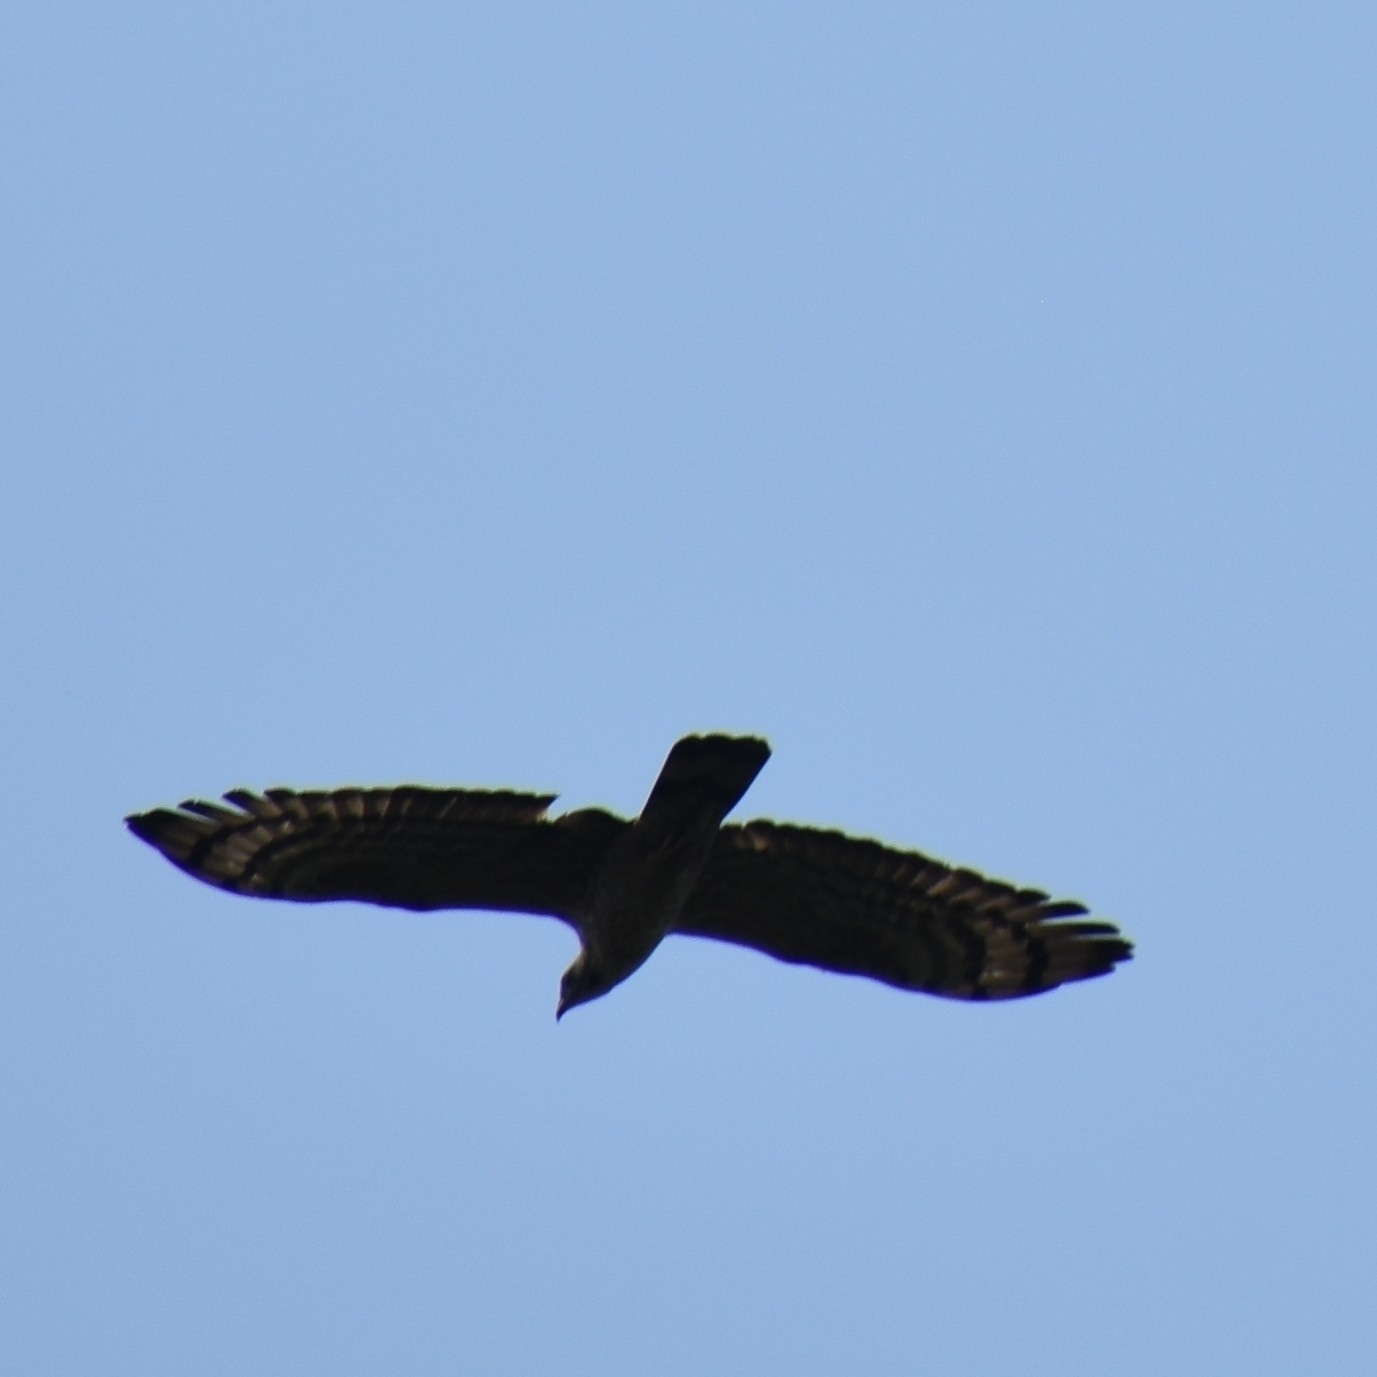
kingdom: Animalia
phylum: Chordata
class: Aves
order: Accipitriformes
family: Accipitridae
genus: Pernis
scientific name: Pernis ptilorhynchus
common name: Crested honey buzzard
